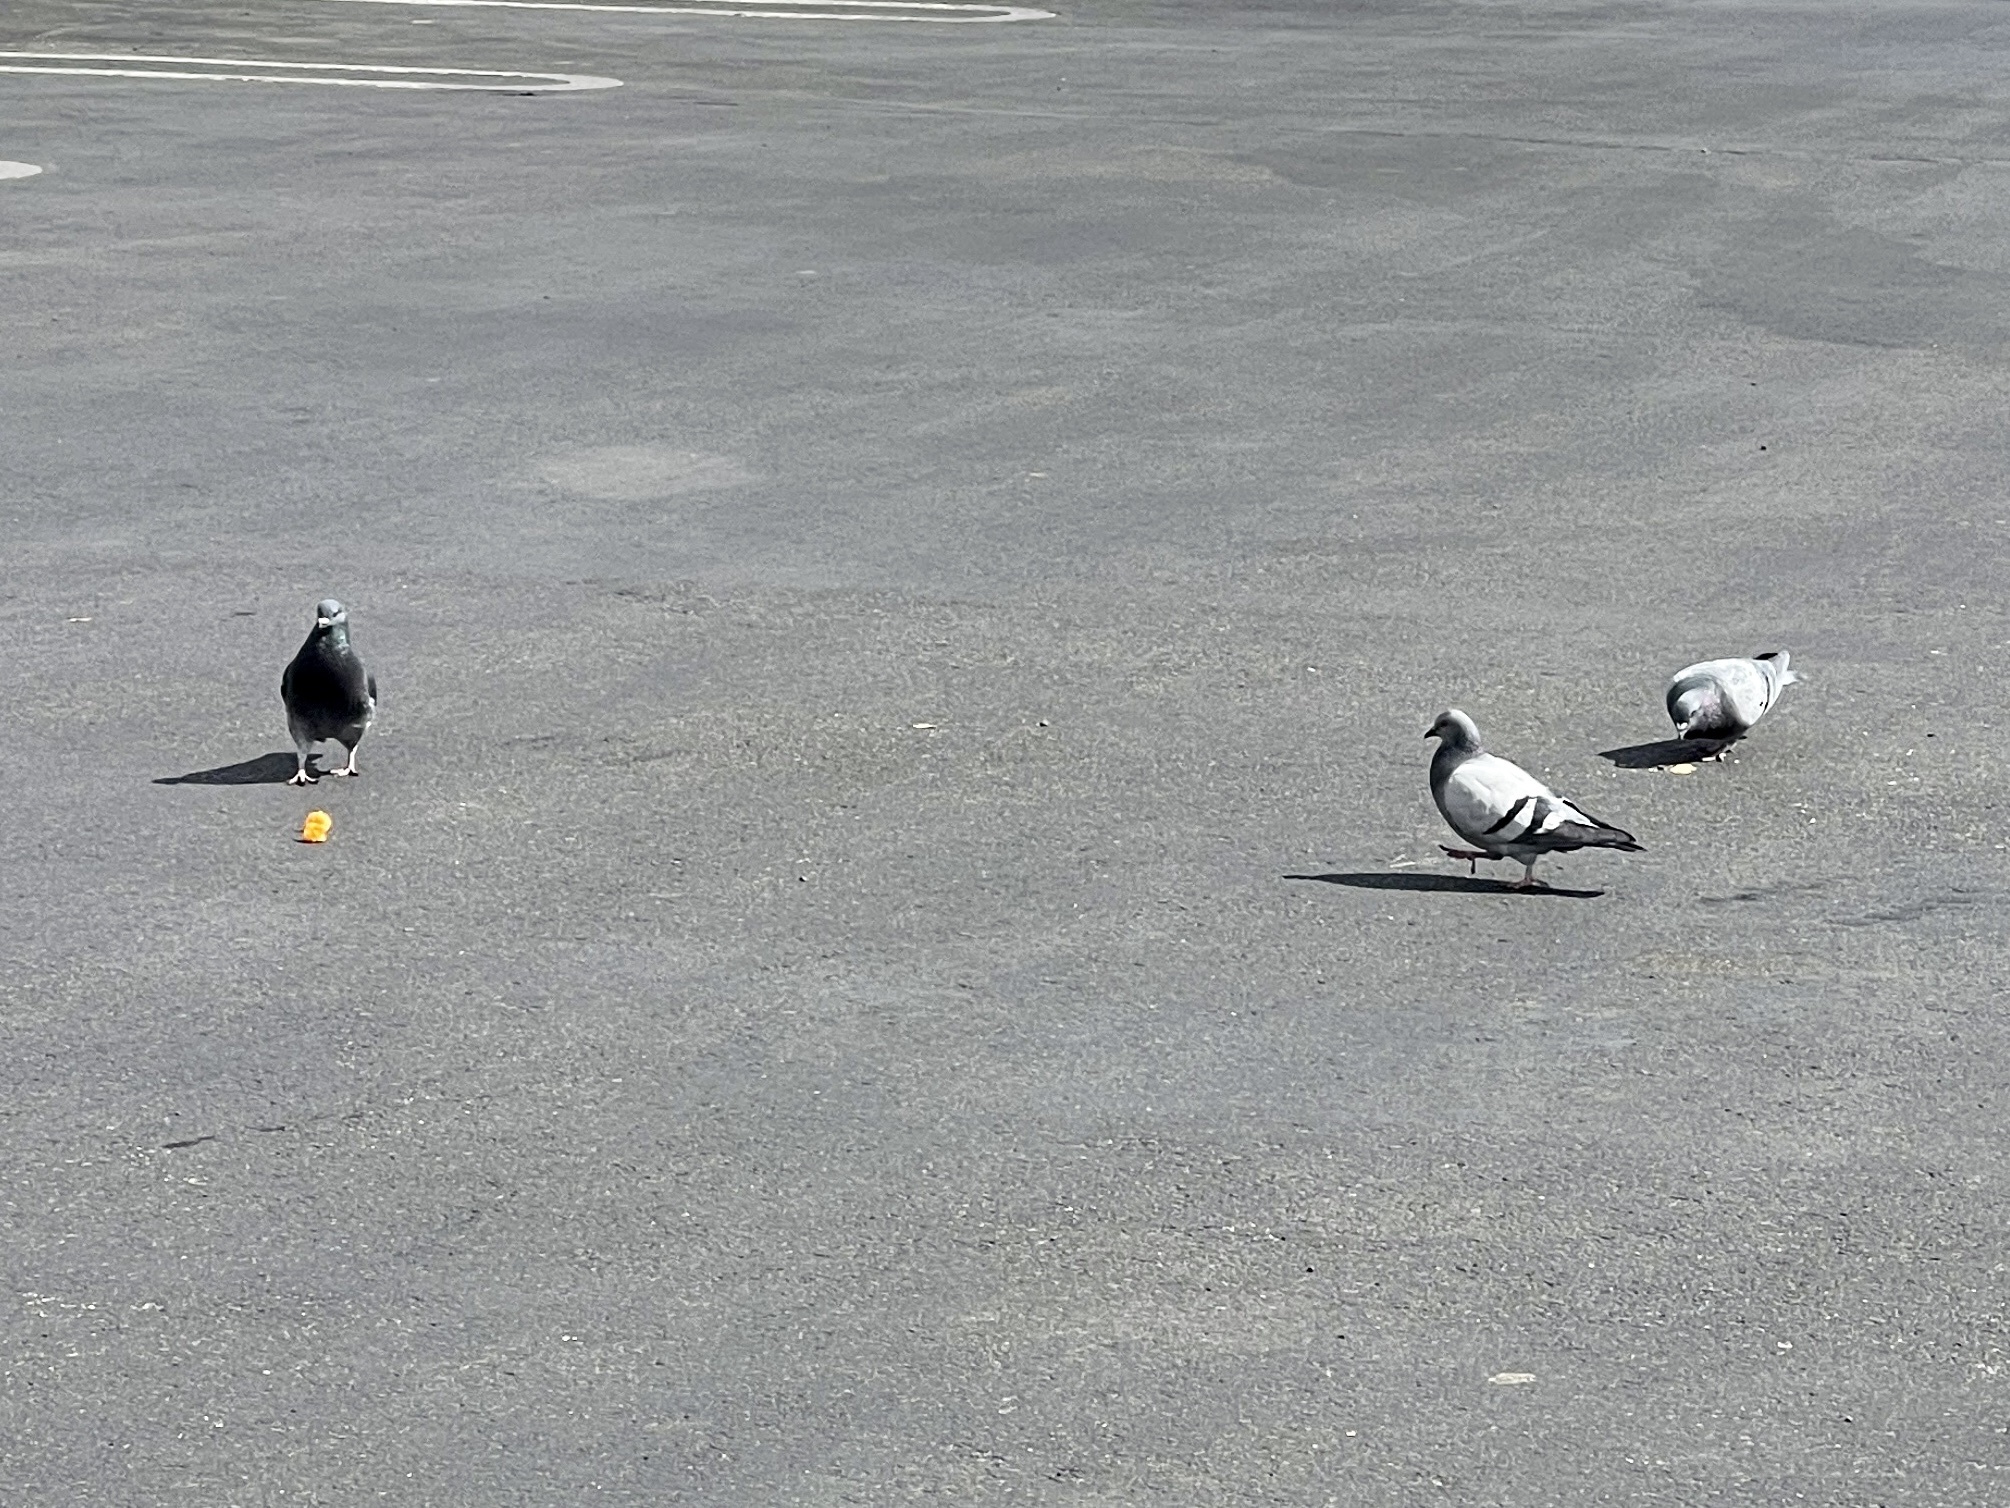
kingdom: Animalia
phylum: Chordata
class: Aves
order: Columbiformes
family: Columbidae
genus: Columba
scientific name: Columba livia
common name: Rock pigeon
